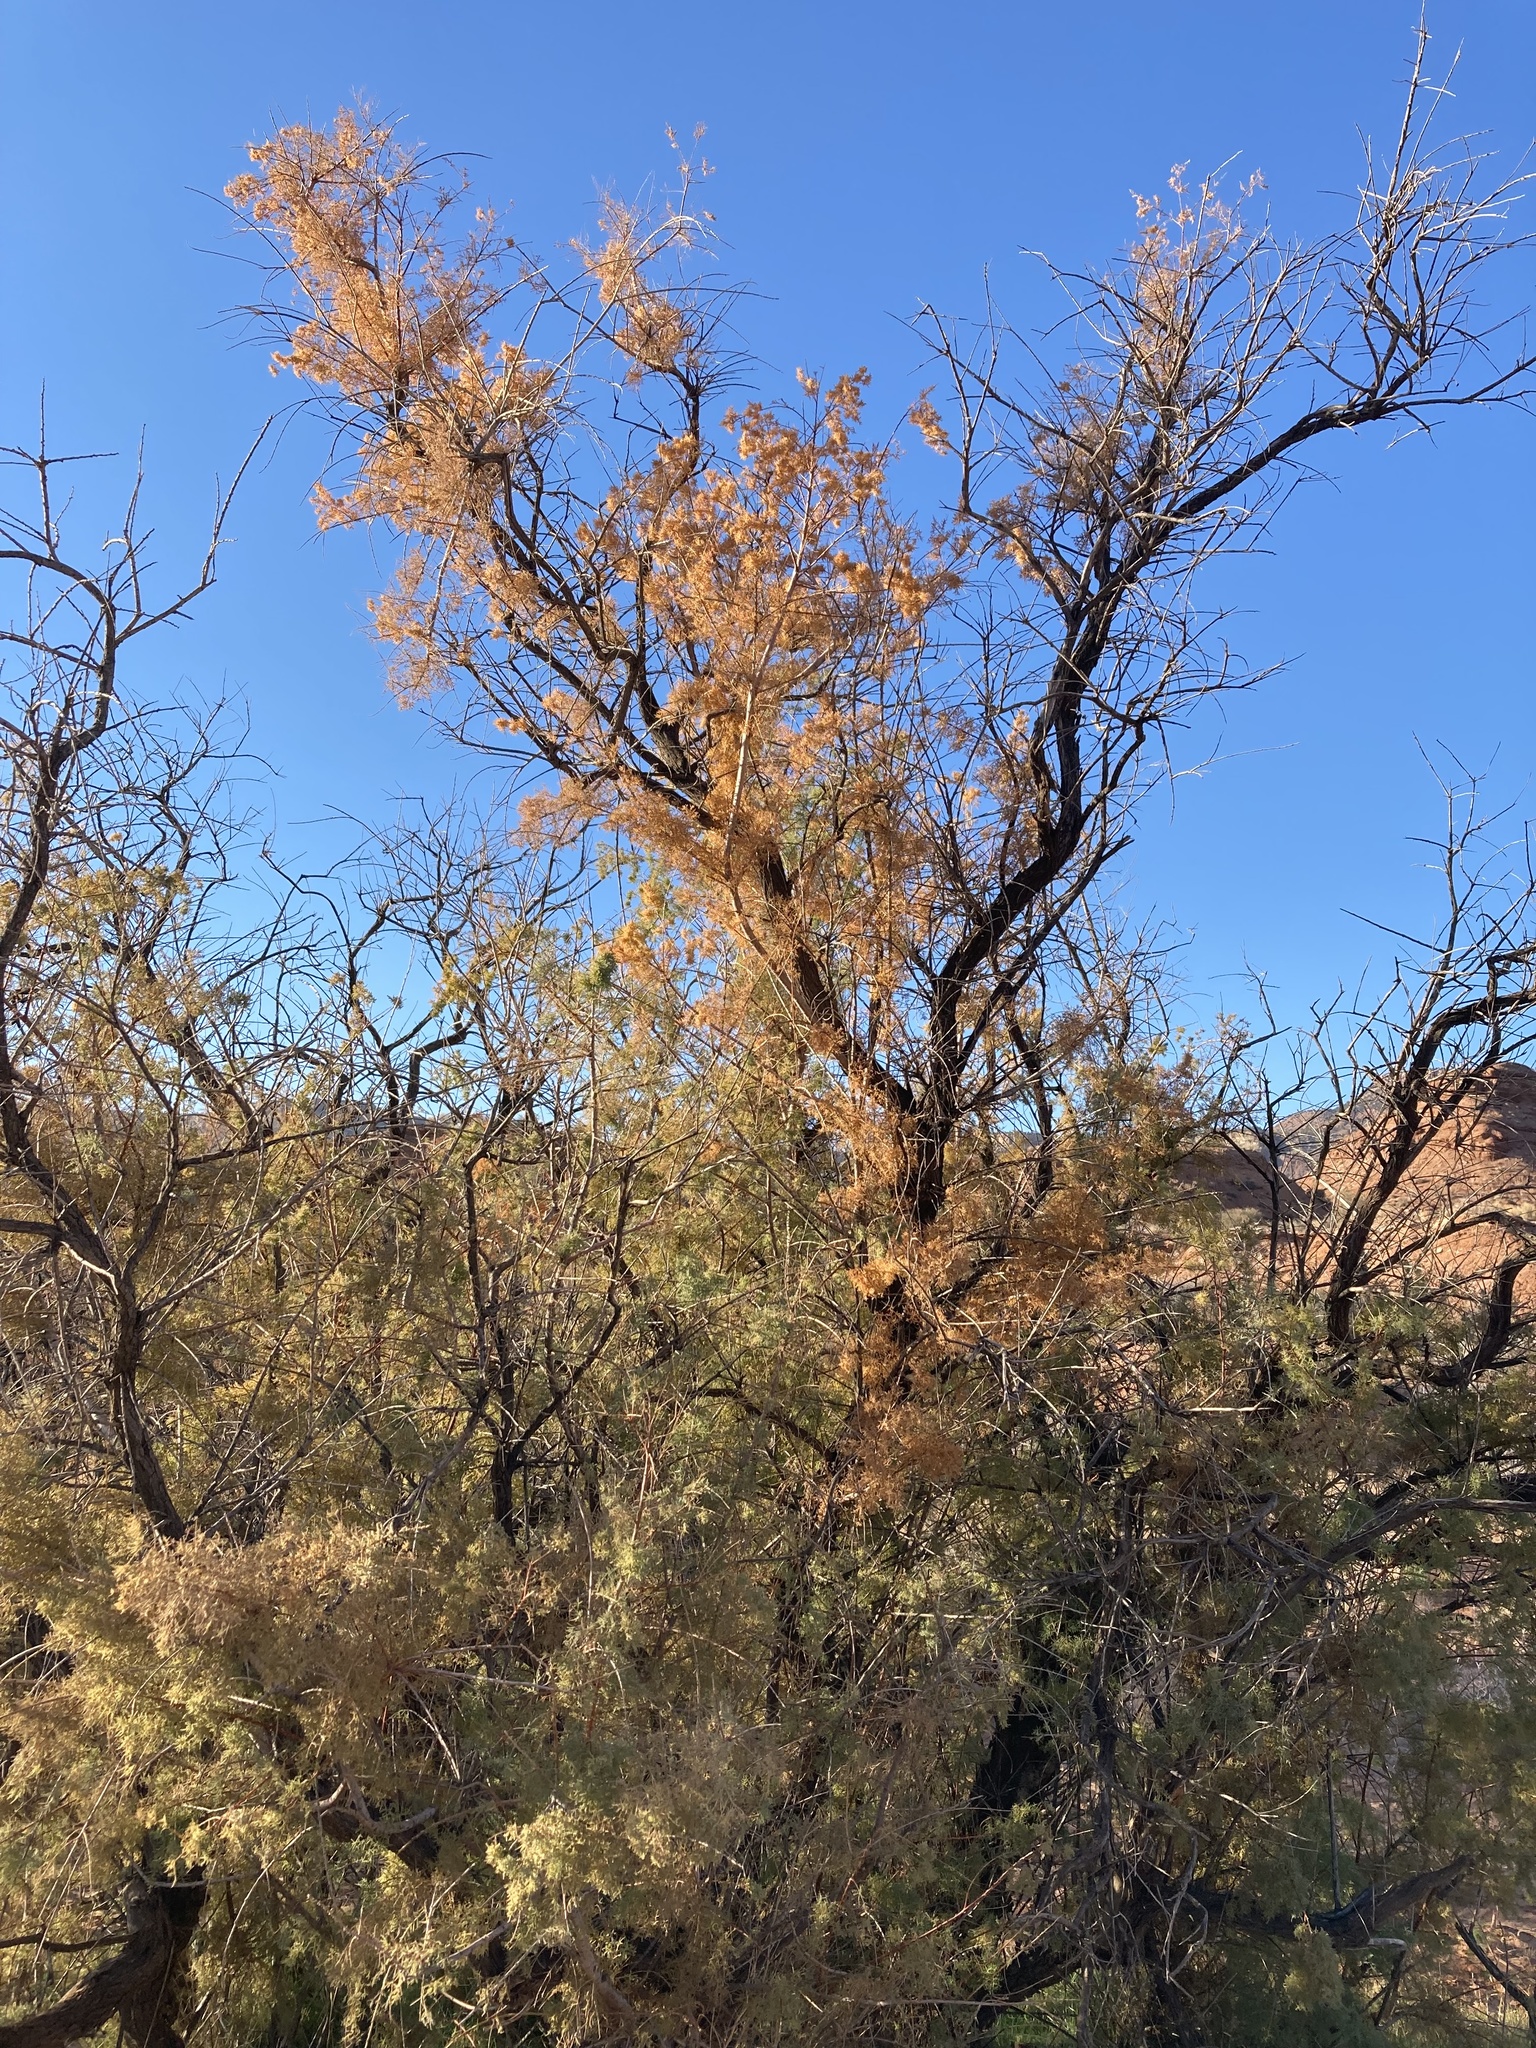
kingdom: Plantae
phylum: Tracheophyta
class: Magnoliopsida
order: Caryophyllales
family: Tamaricaceae
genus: Tamarix
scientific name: Tamarix ramosissima
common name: Pink tamarisk
